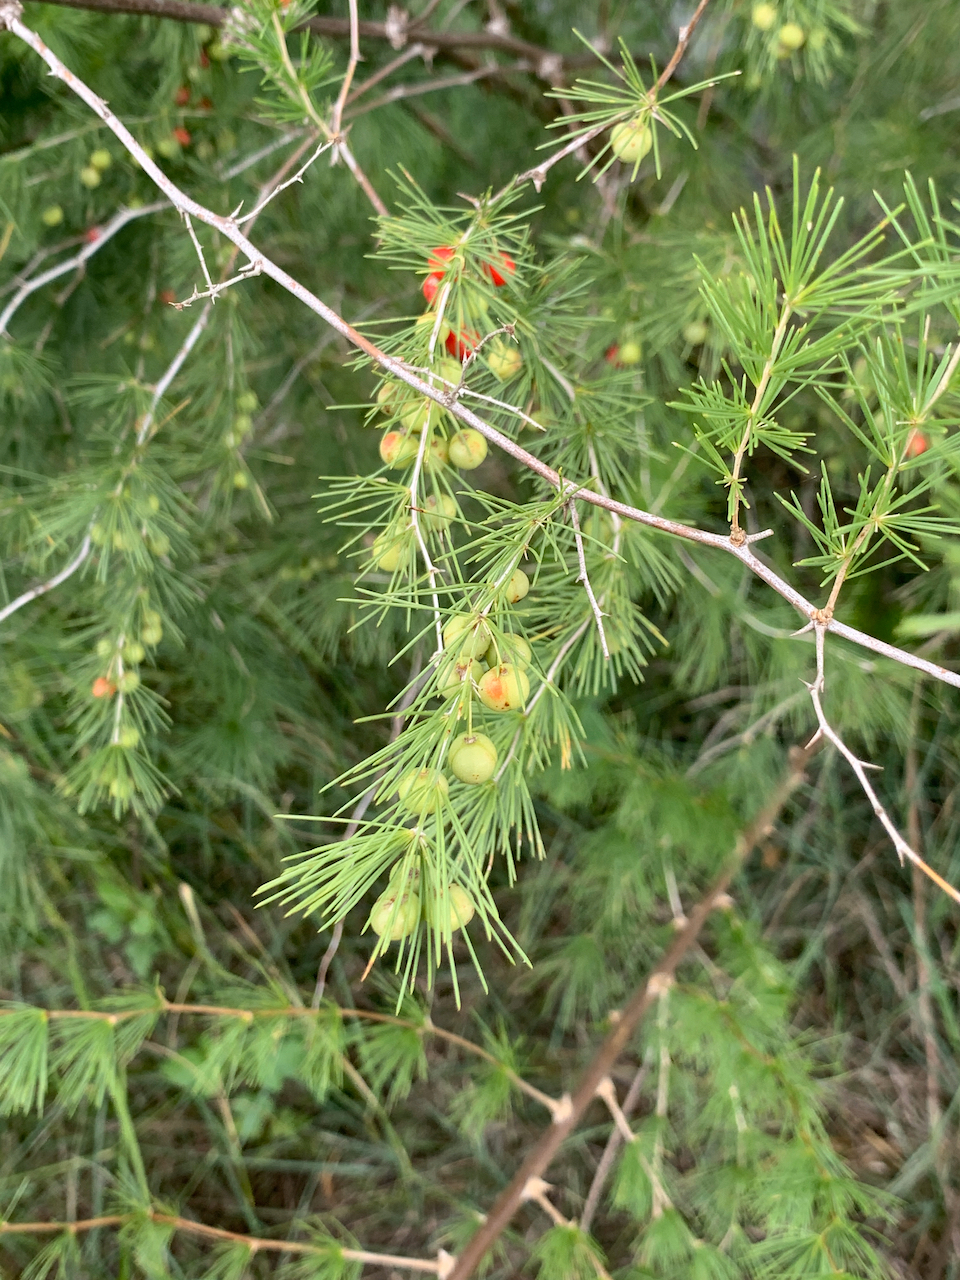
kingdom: Plantae
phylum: Tracheophyta
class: Liliopsida
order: Asparagales
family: Asparagaceae
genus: Asparagus
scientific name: Asparagus laricinus
